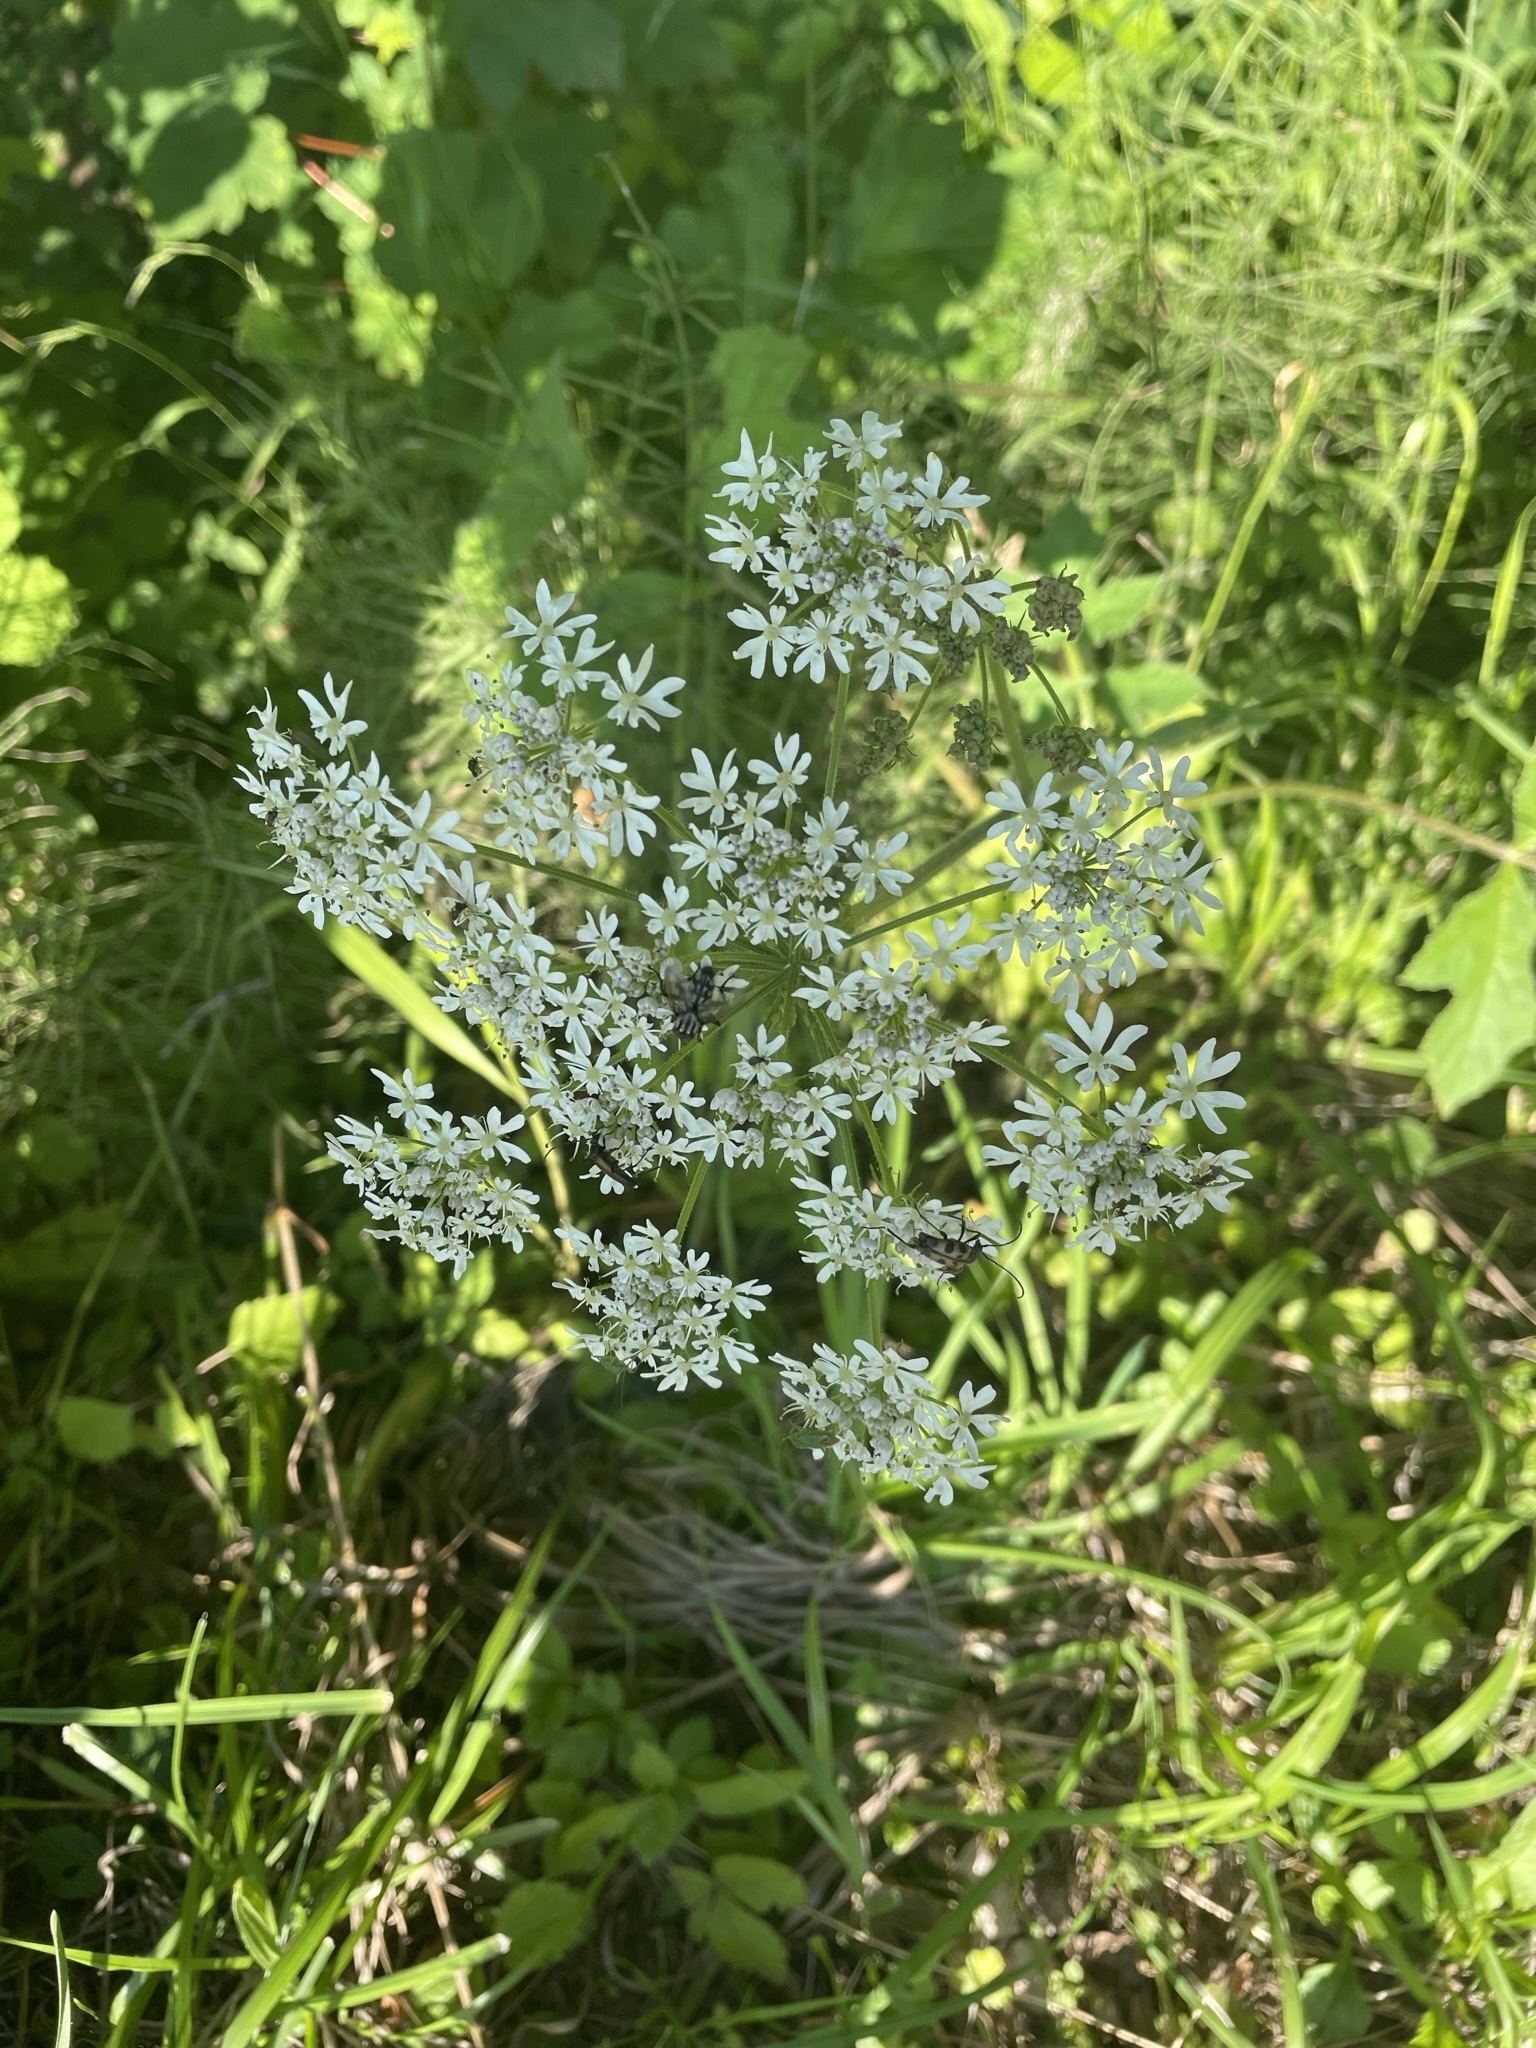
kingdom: Plantae
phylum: Tracheophyta
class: Magnoliopsida
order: Apiales
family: Apiaceae
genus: Heracleum
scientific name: Heracleum sphondylium
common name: Hogweed
